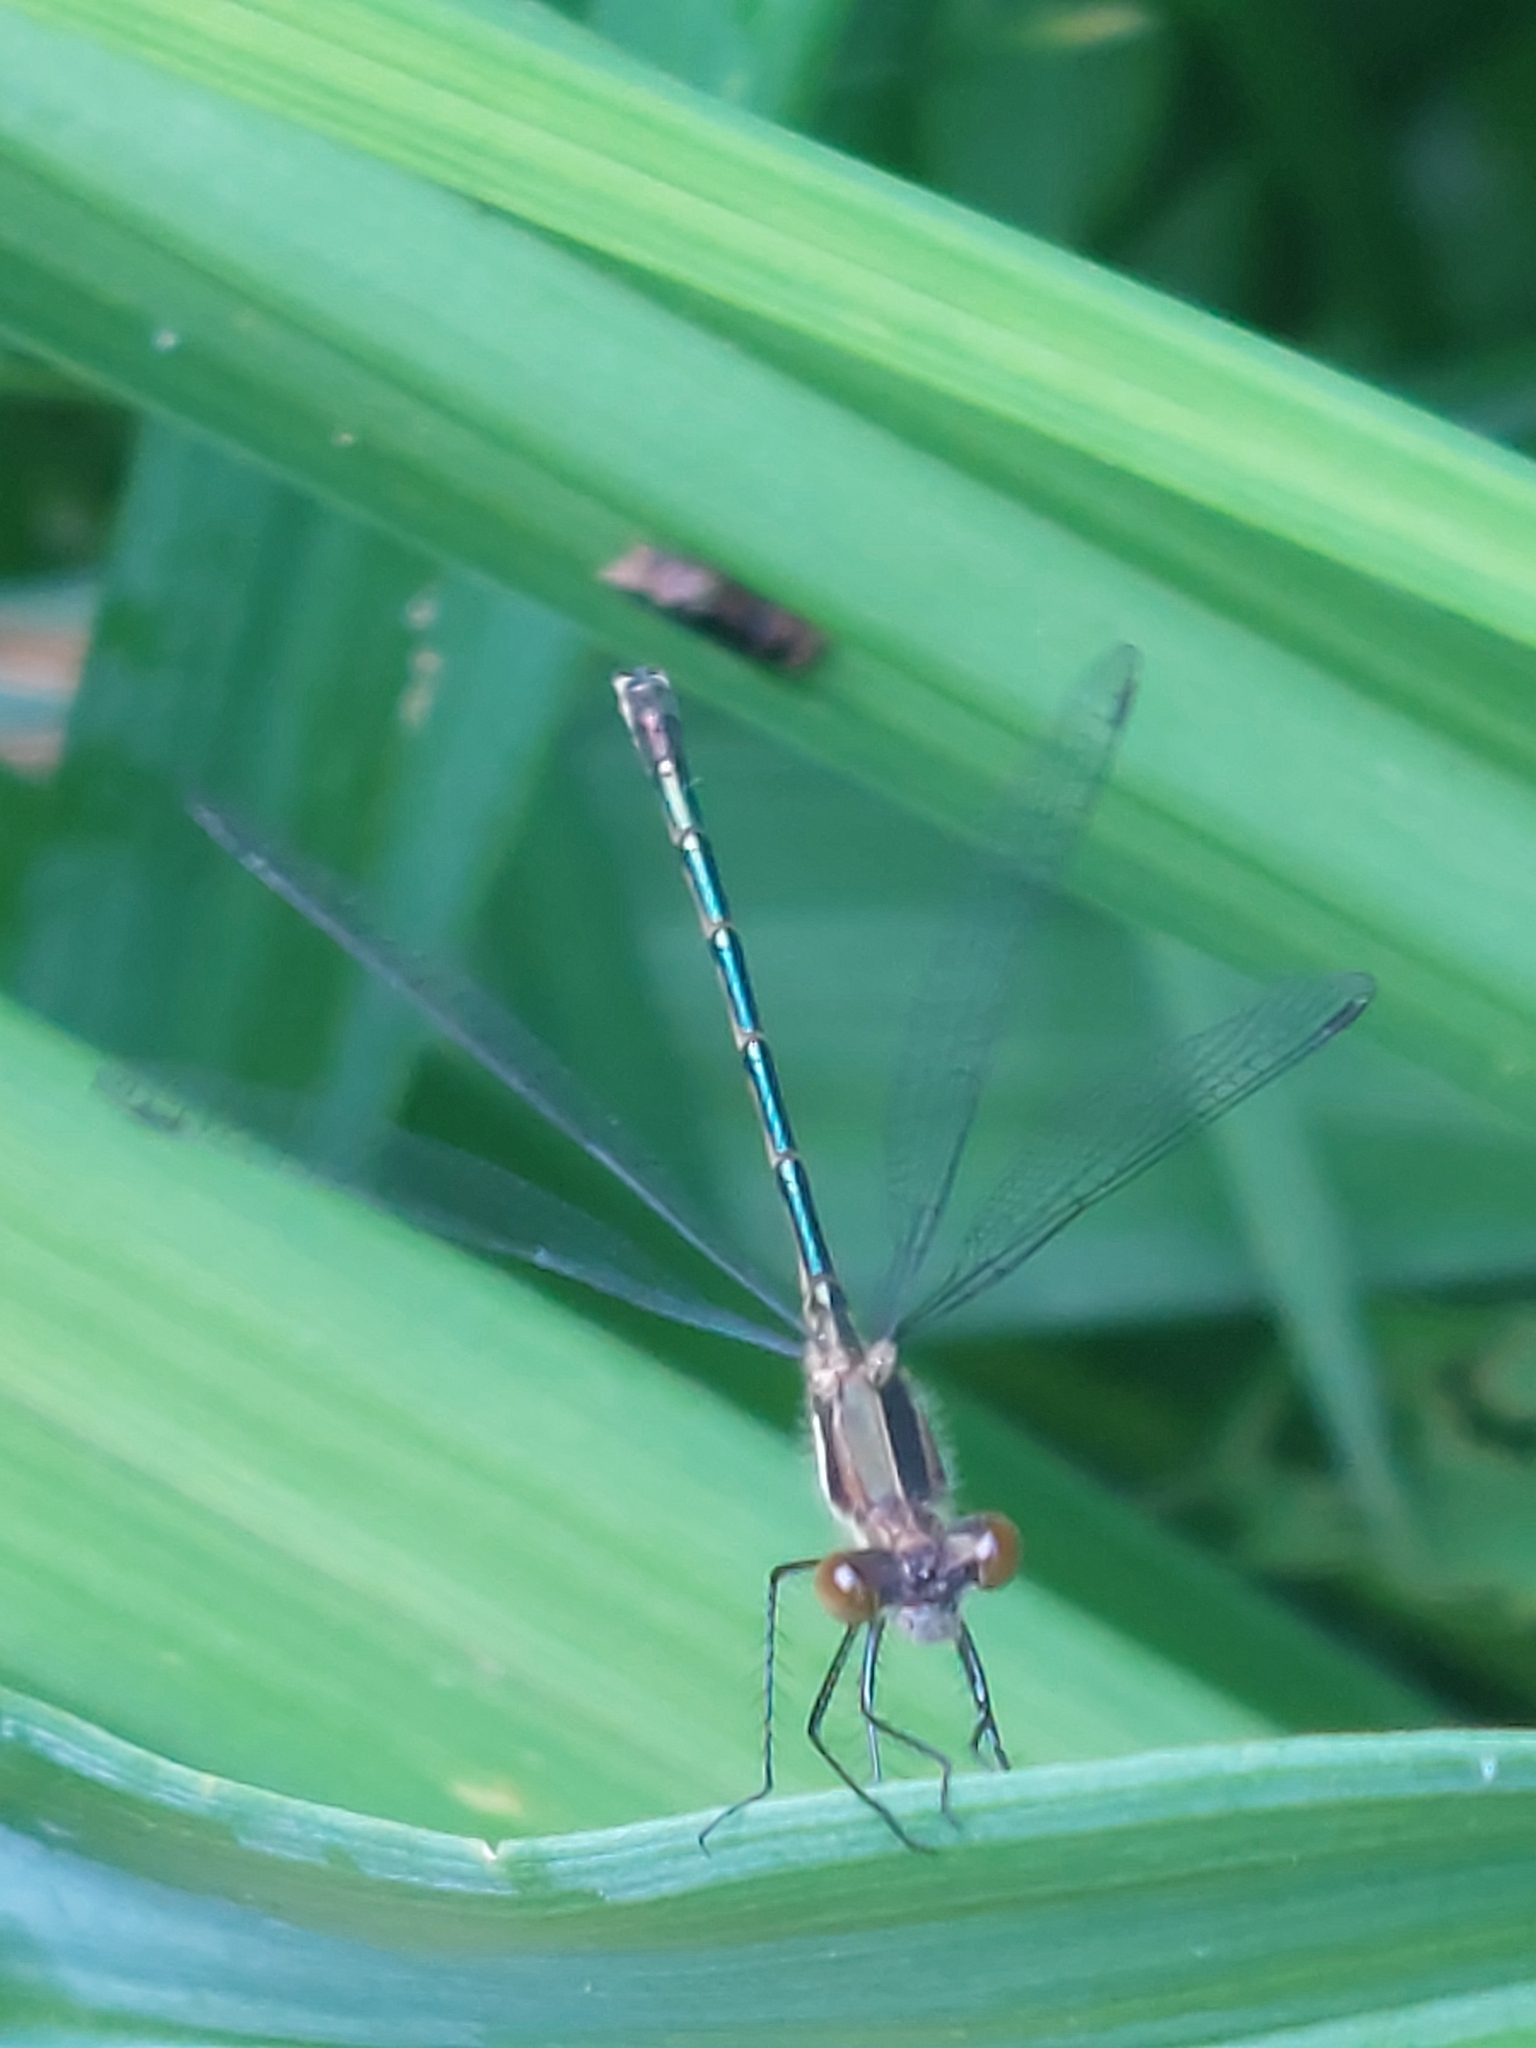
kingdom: Animalia
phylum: Arthropoda
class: Insecta
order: Odonata
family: Lestidae
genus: Lestes
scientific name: Lestes dryas
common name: Scarce emerald damselfly
